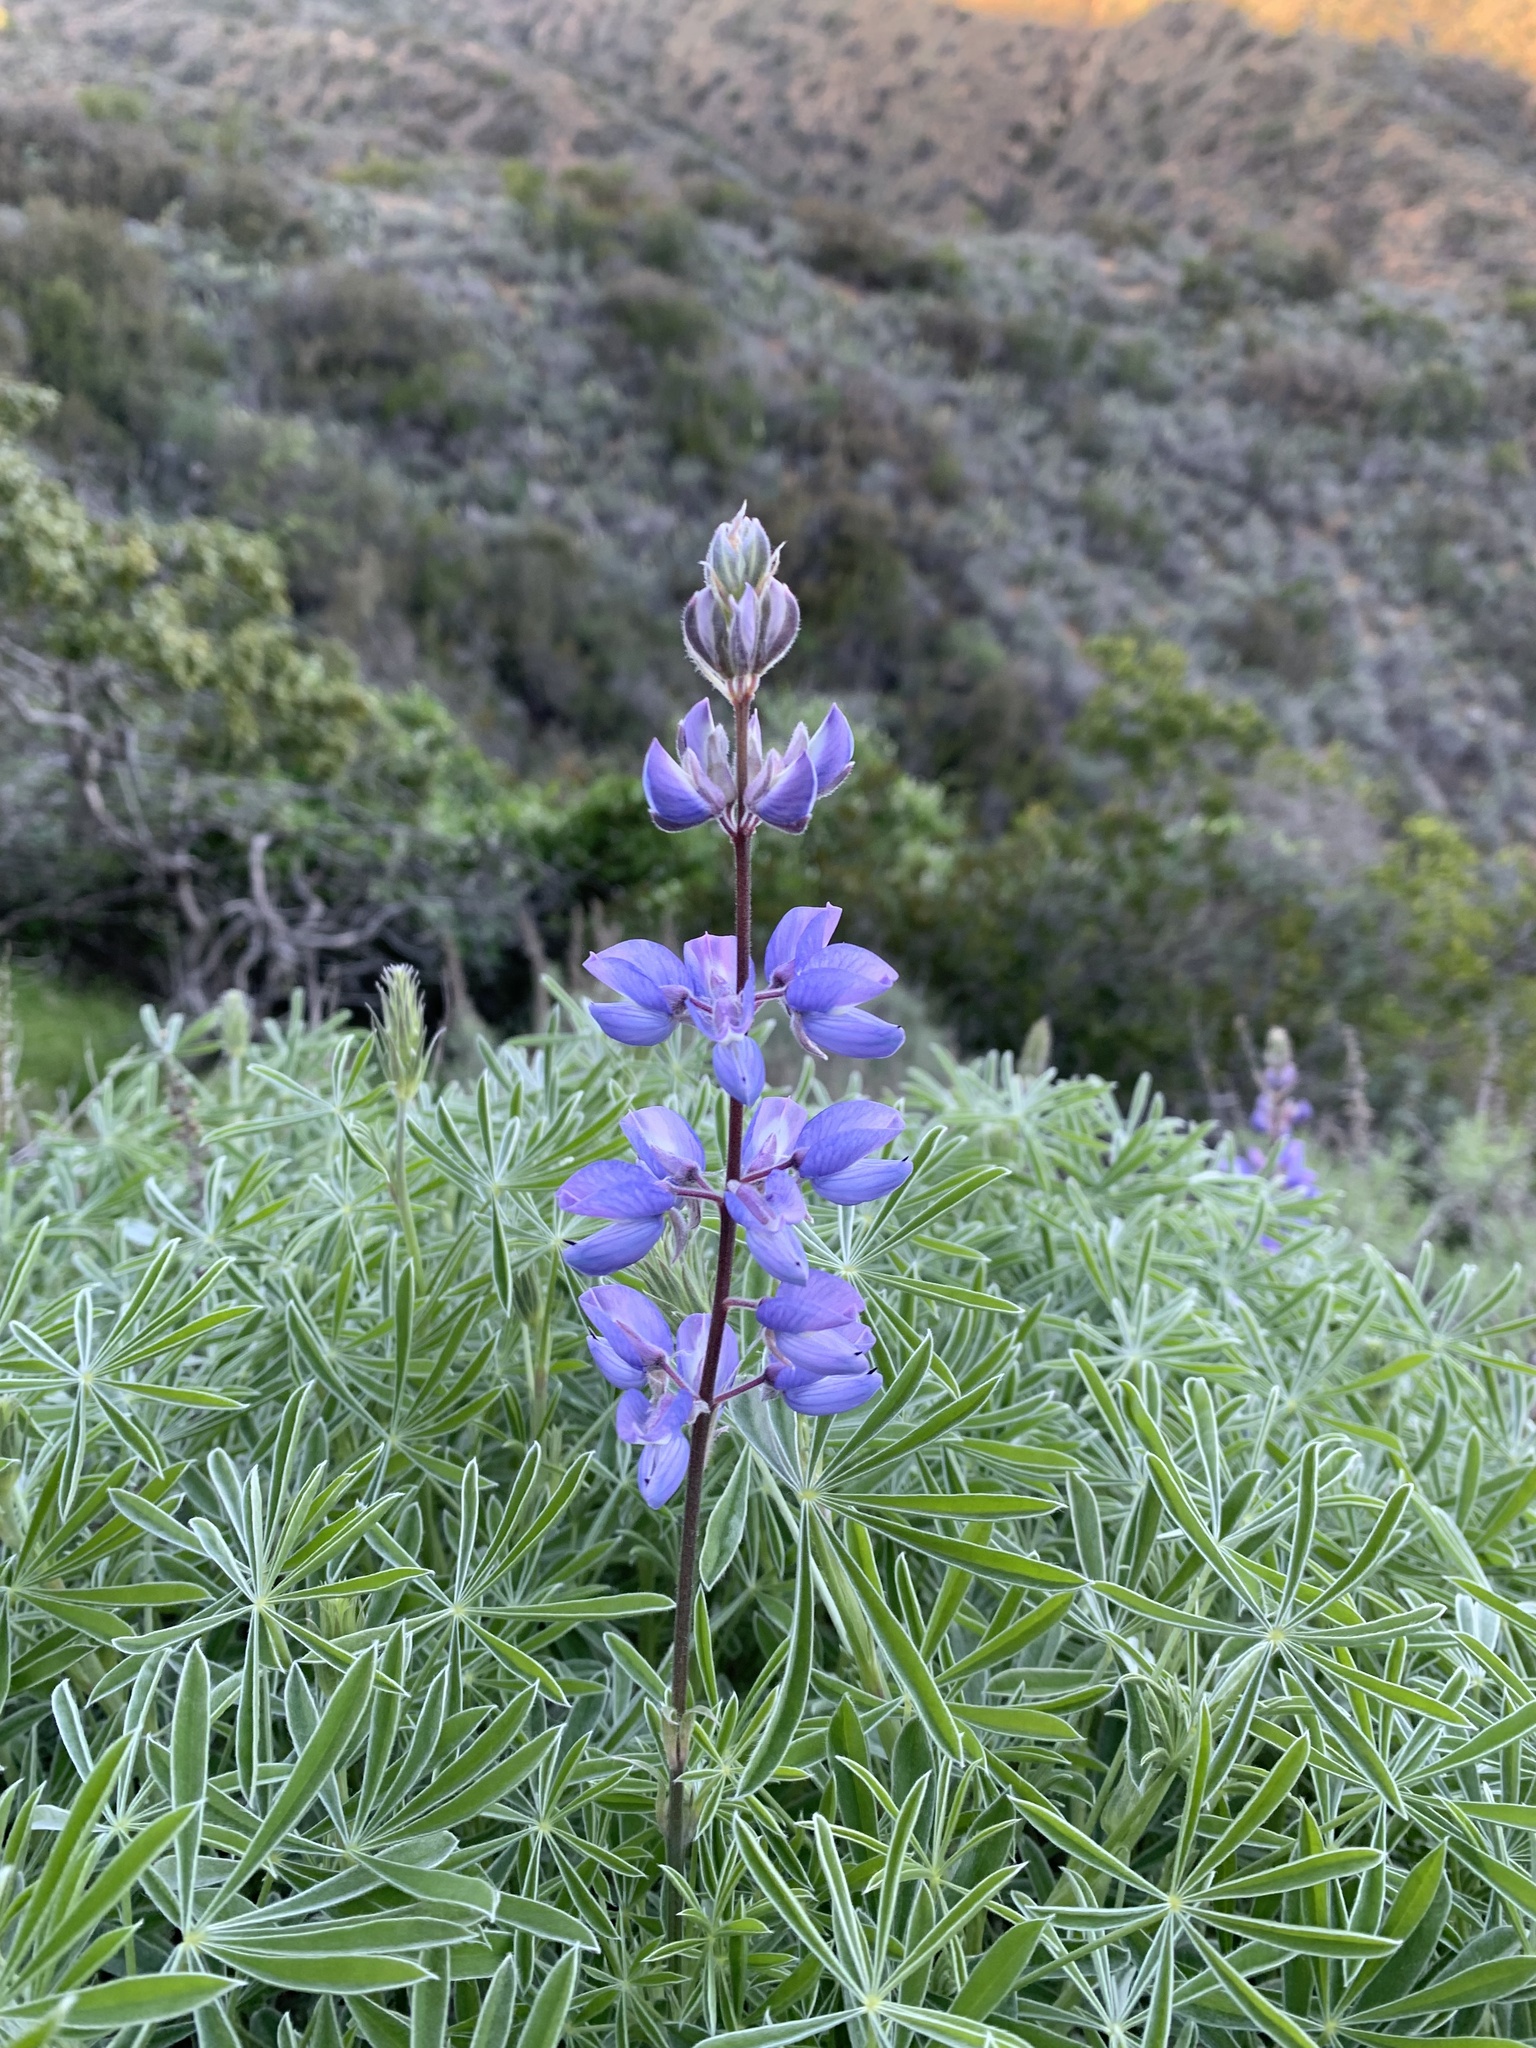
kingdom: Plantae
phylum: Tracheophyta
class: Magnoliopsida
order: Fabales
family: Fabaceae
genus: Lupinus
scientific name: Lupinus albifrons
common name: Foothill lupine
